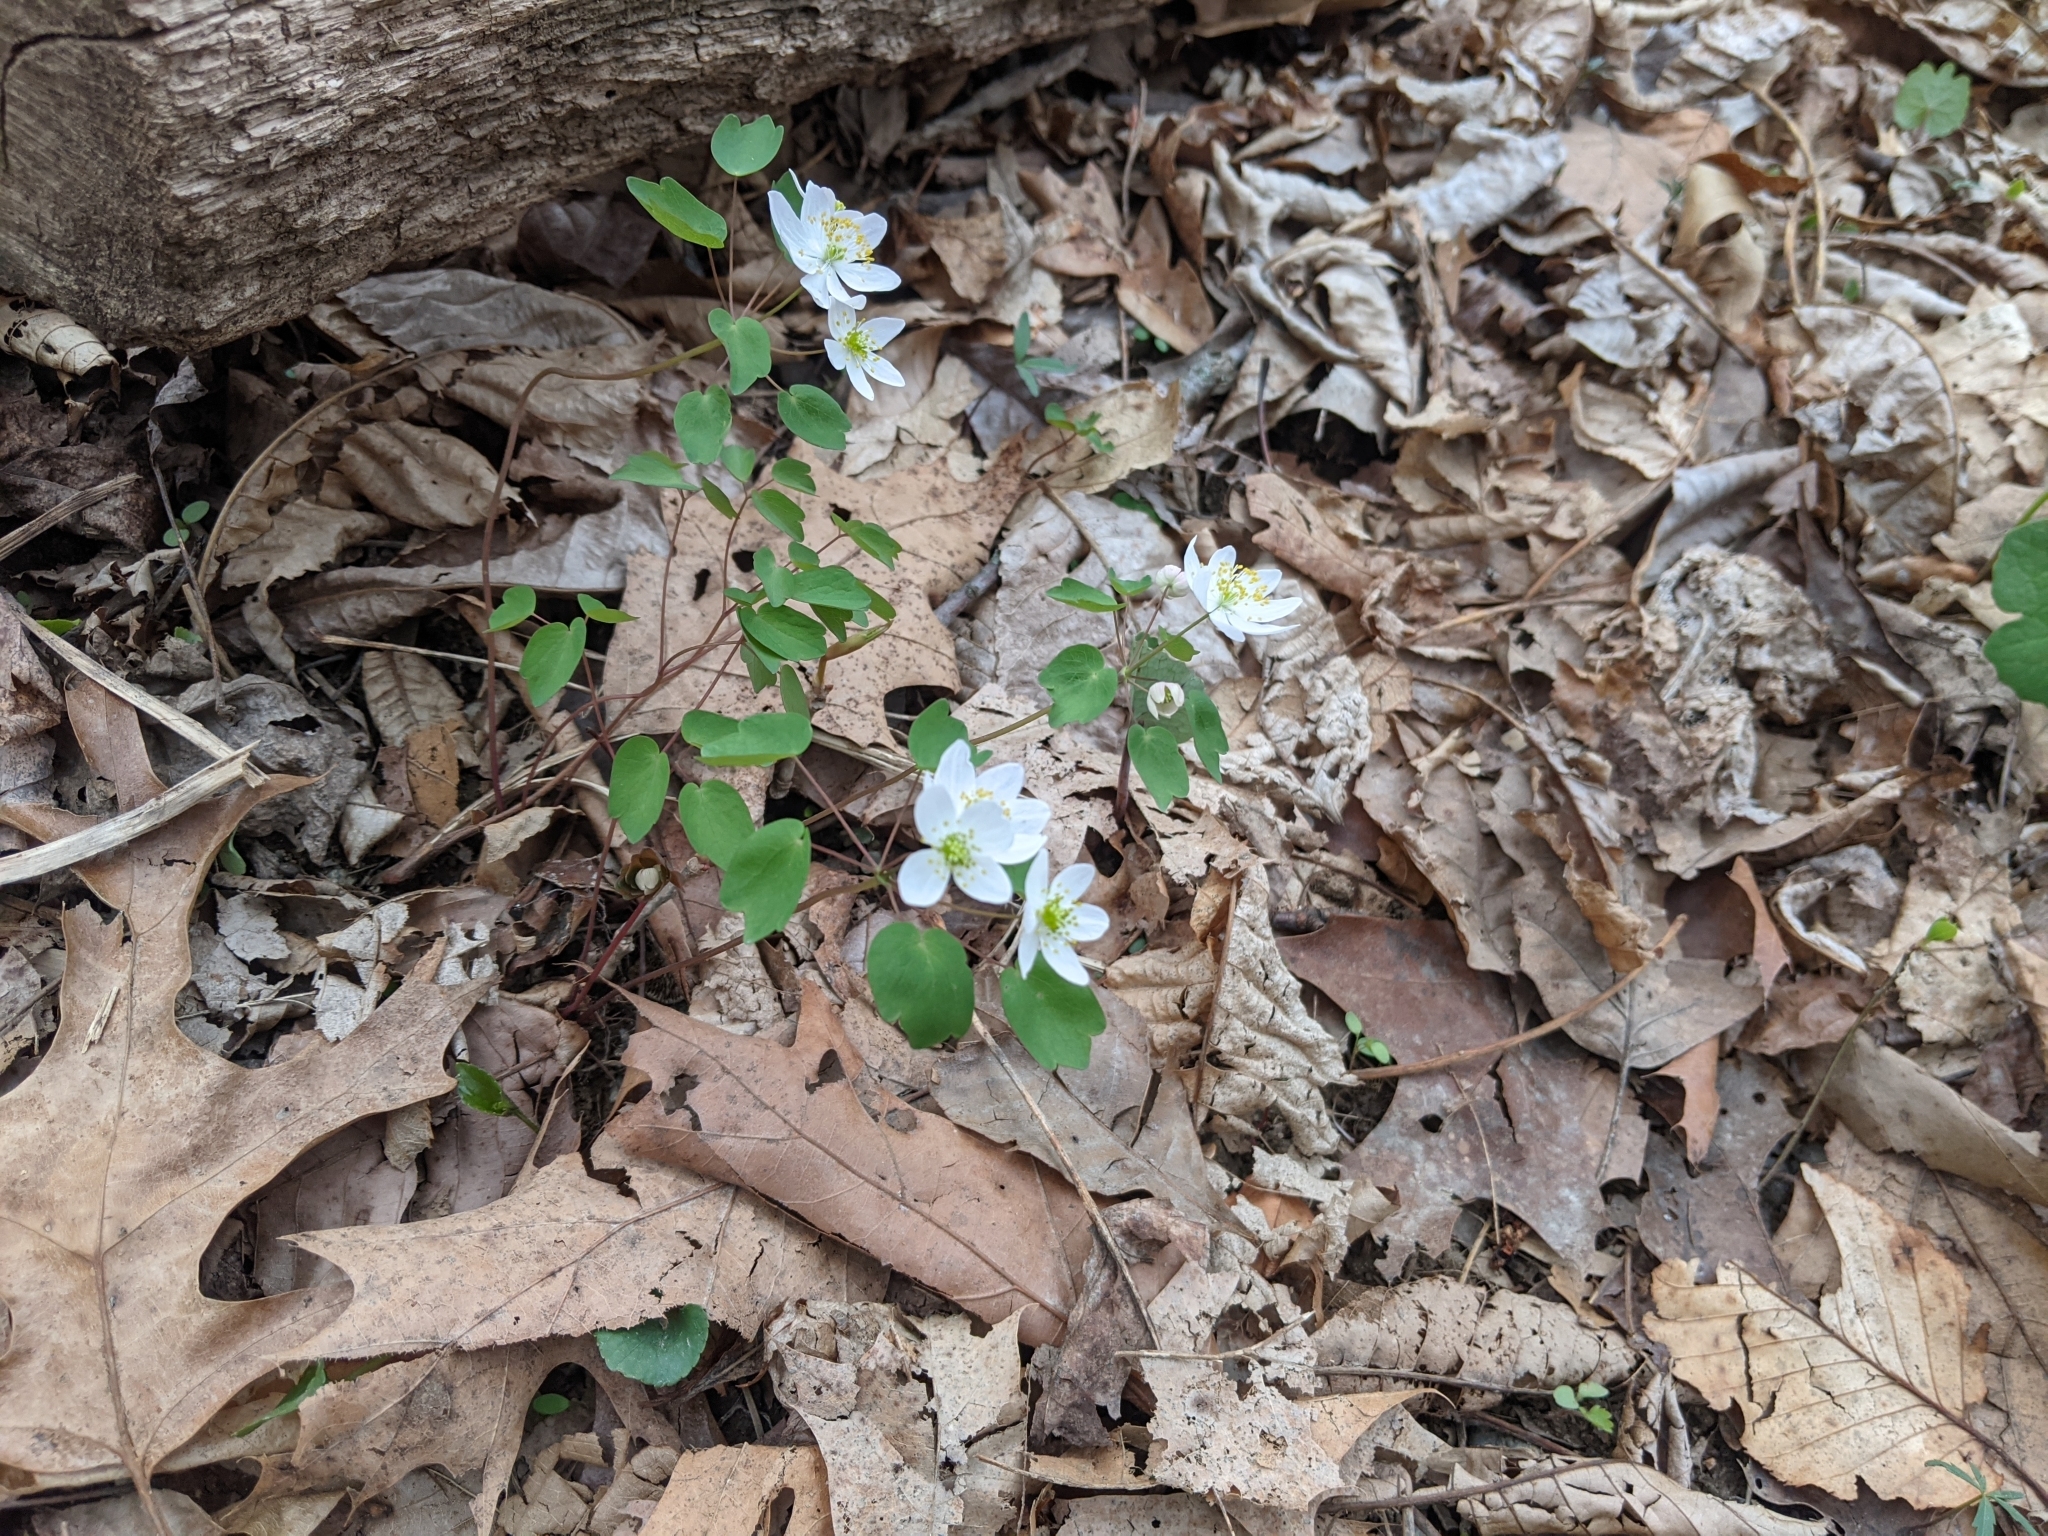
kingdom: Plantae
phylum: Tracheophyta
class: Magnoliopsida
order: Ranunculales
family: Ranunculaceae
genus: Thalictrum
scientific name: Thalictrum thalictroides
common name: Rue-anemone
